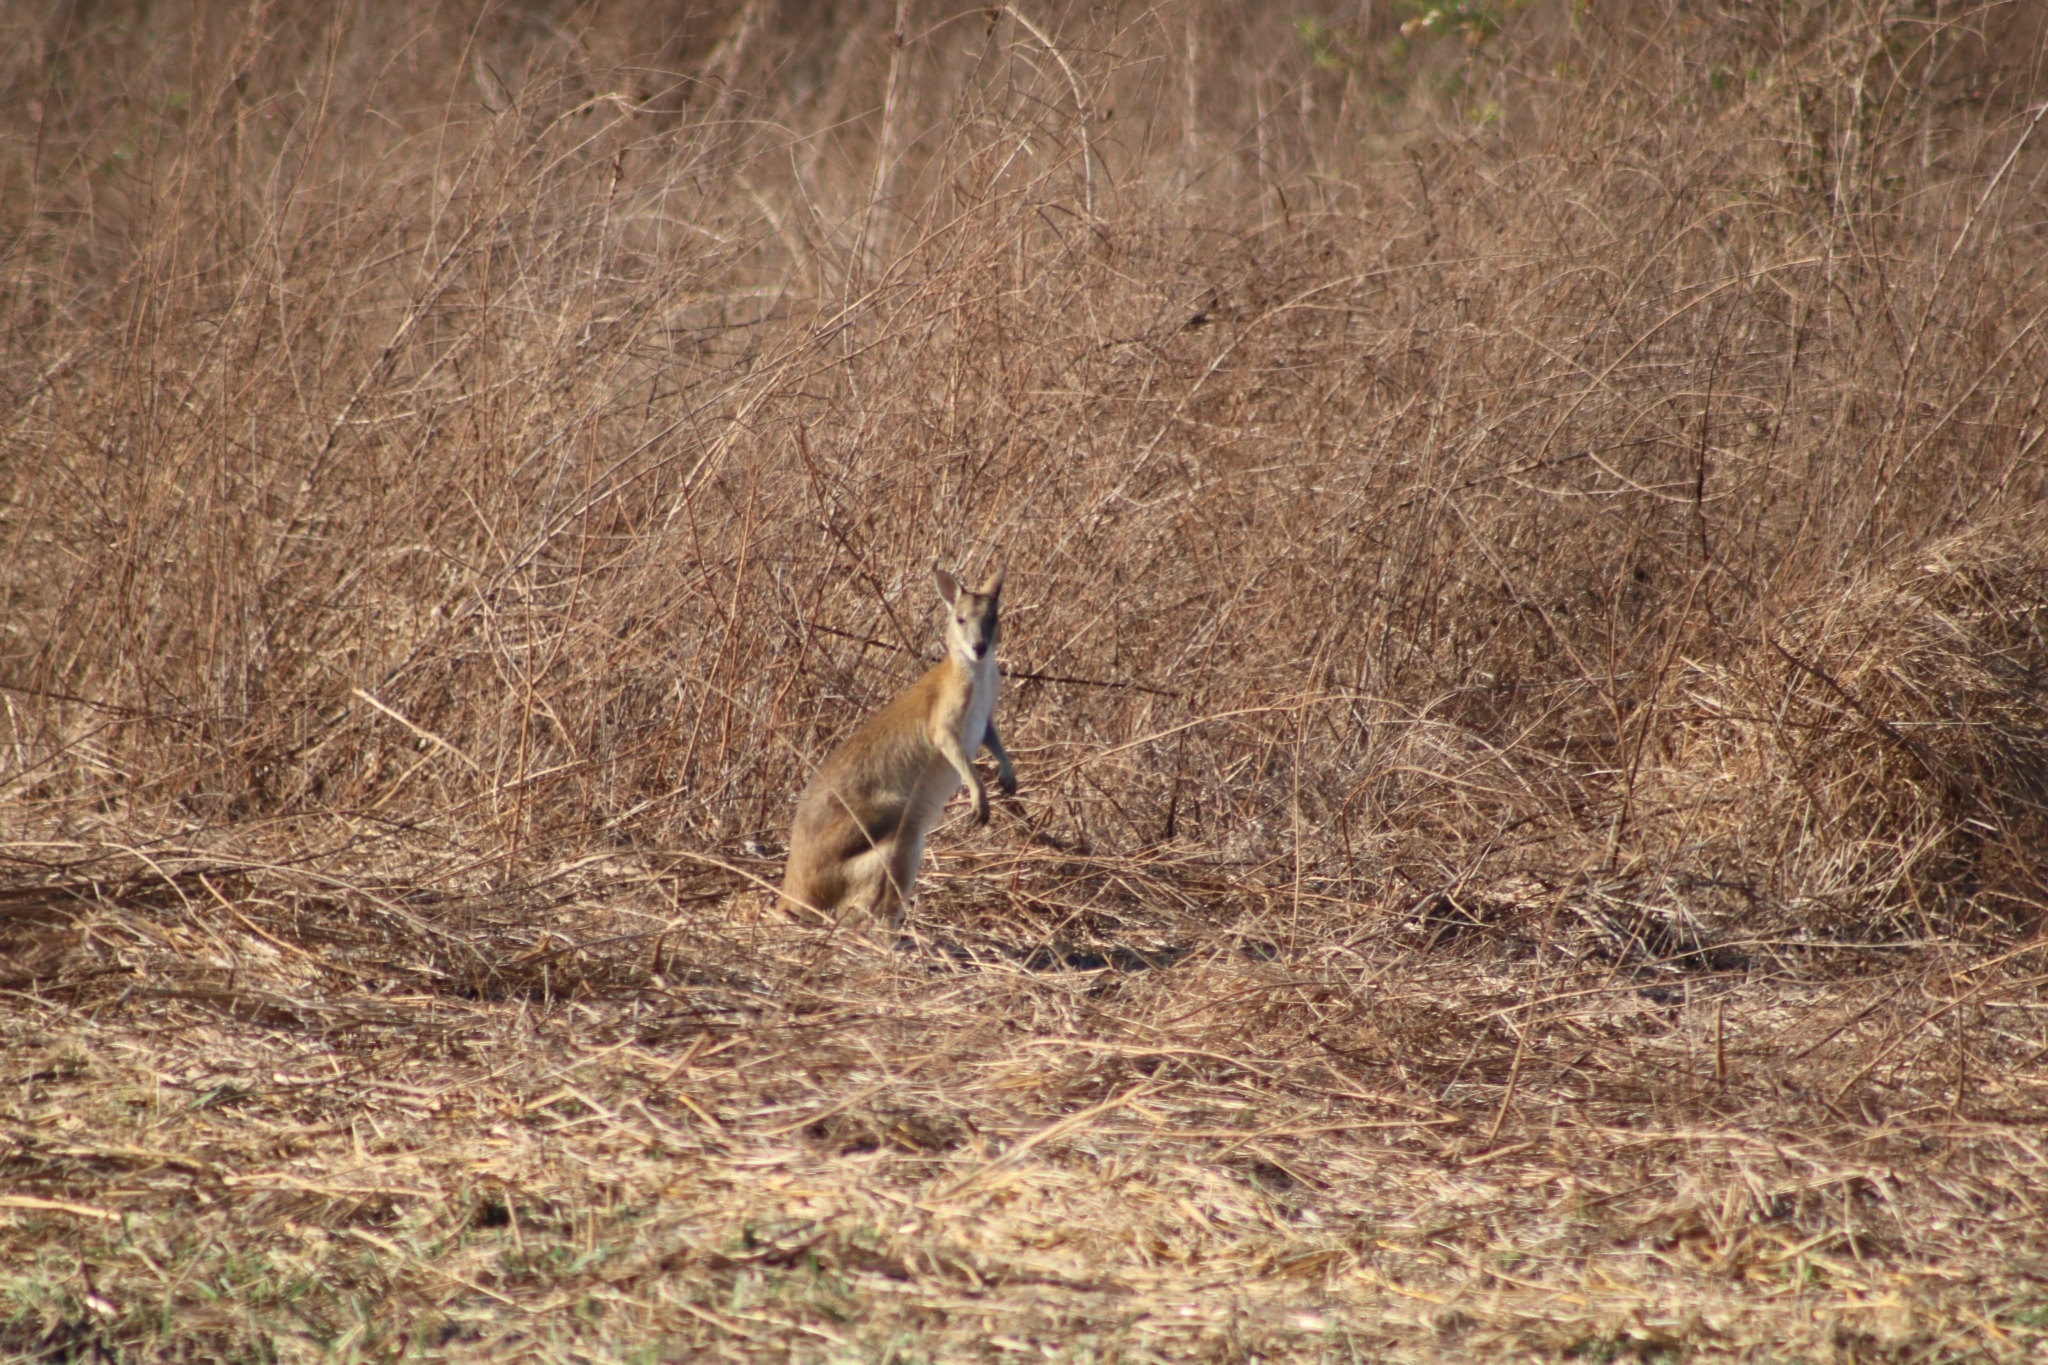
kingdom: Animalia
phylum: Chordata
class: Mammalia
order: Diprotodontia
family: Macropodidae
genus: Macropus
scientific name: Macropus agilis
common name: Agile wallaby
